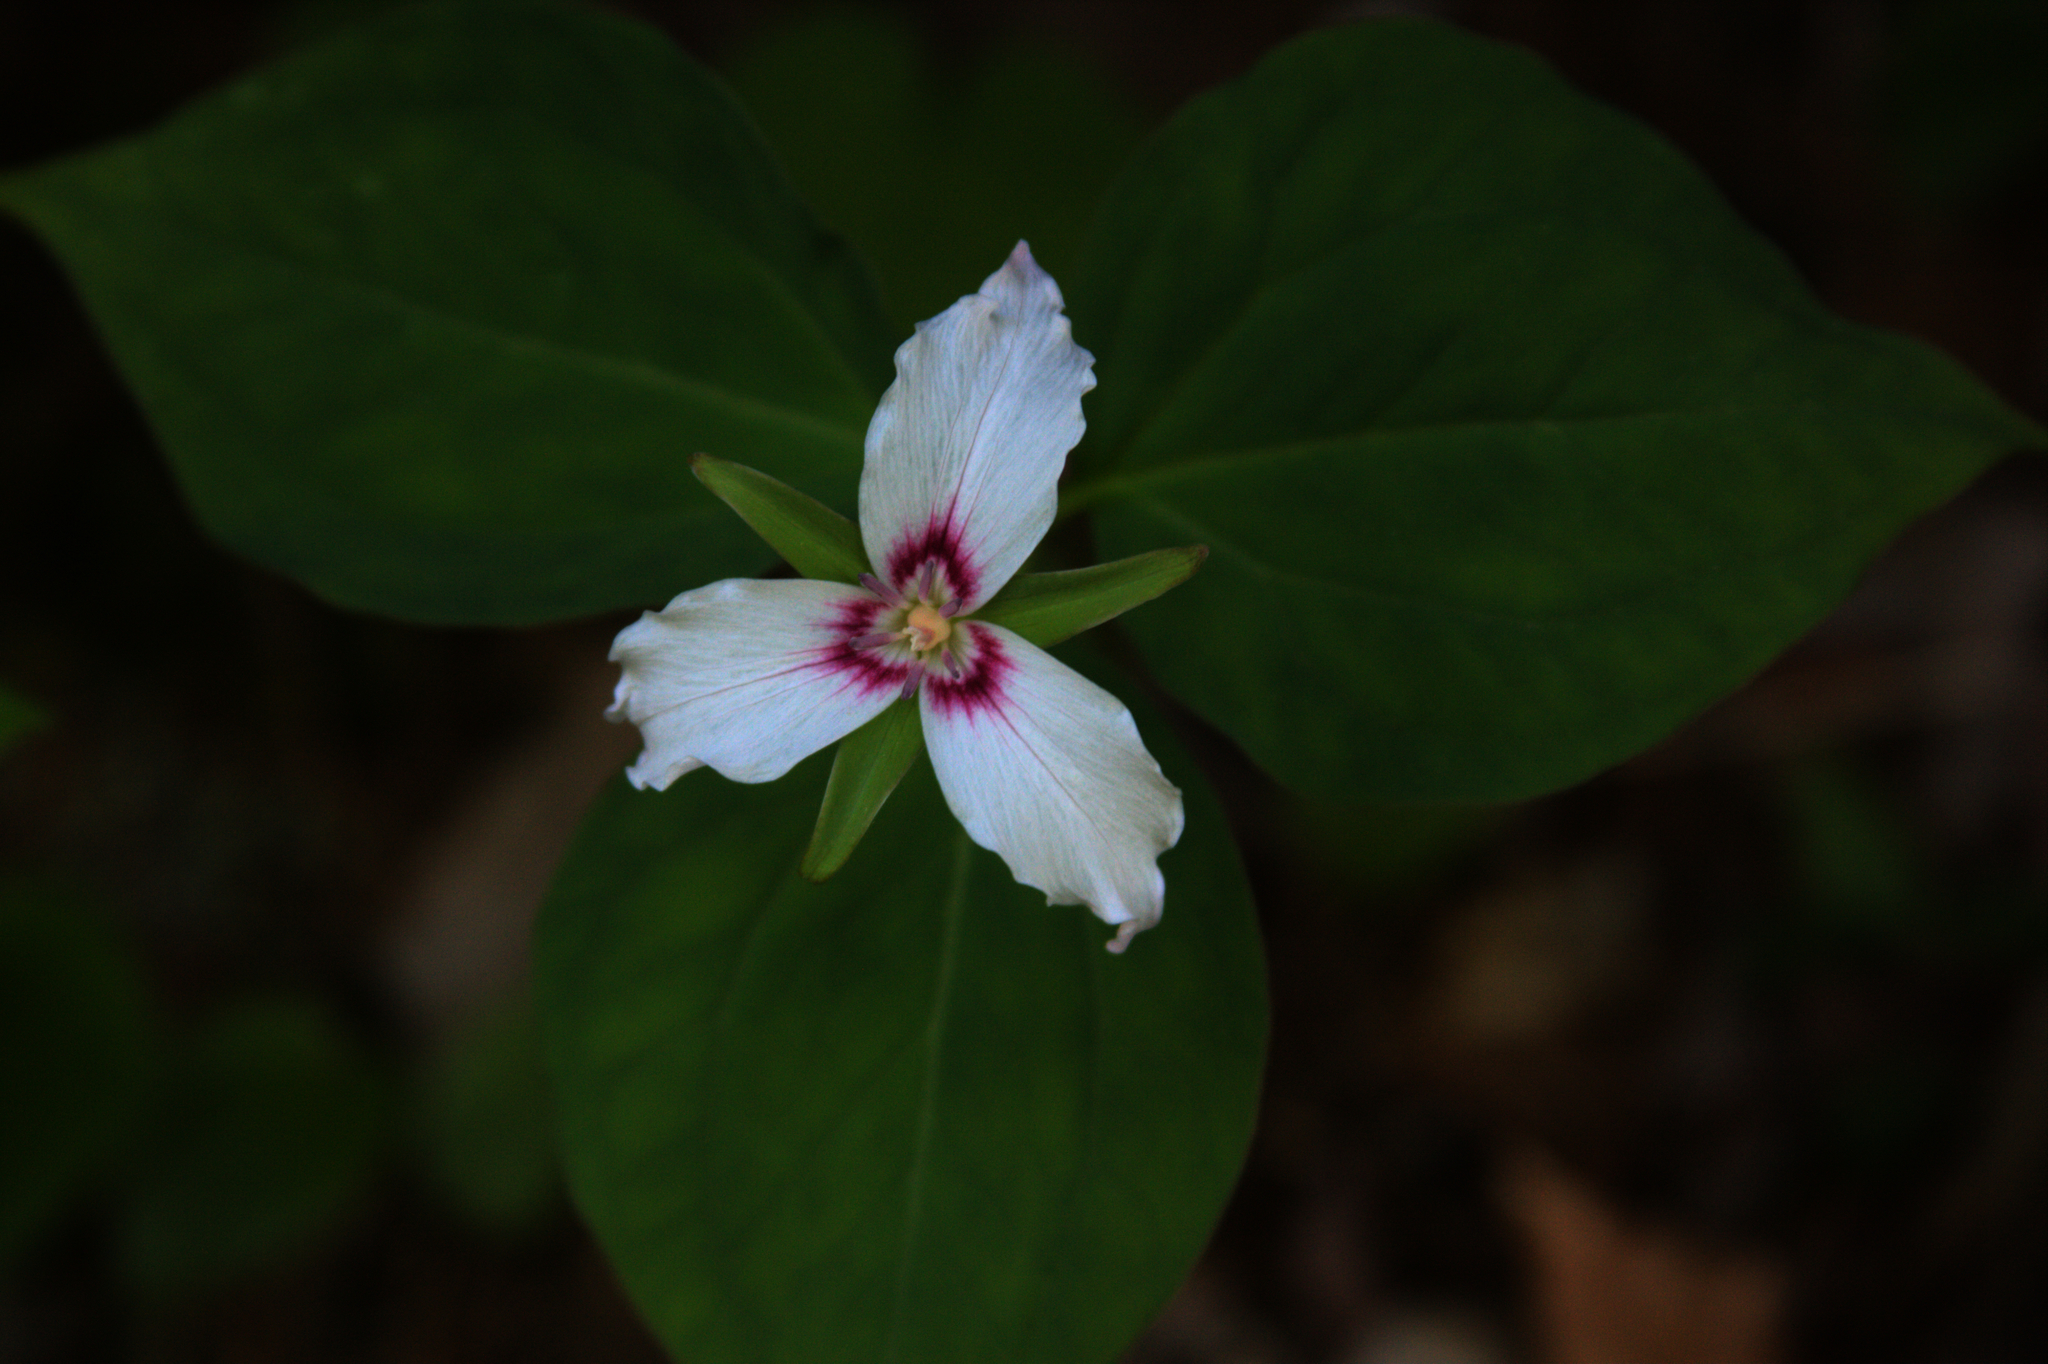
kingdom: Plantae
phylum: Tracheophyta
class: Liliopsida
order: Liliales
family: Melanthiaceae
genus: Trillium
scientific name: Trillium undulatum
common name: Paint trillium
